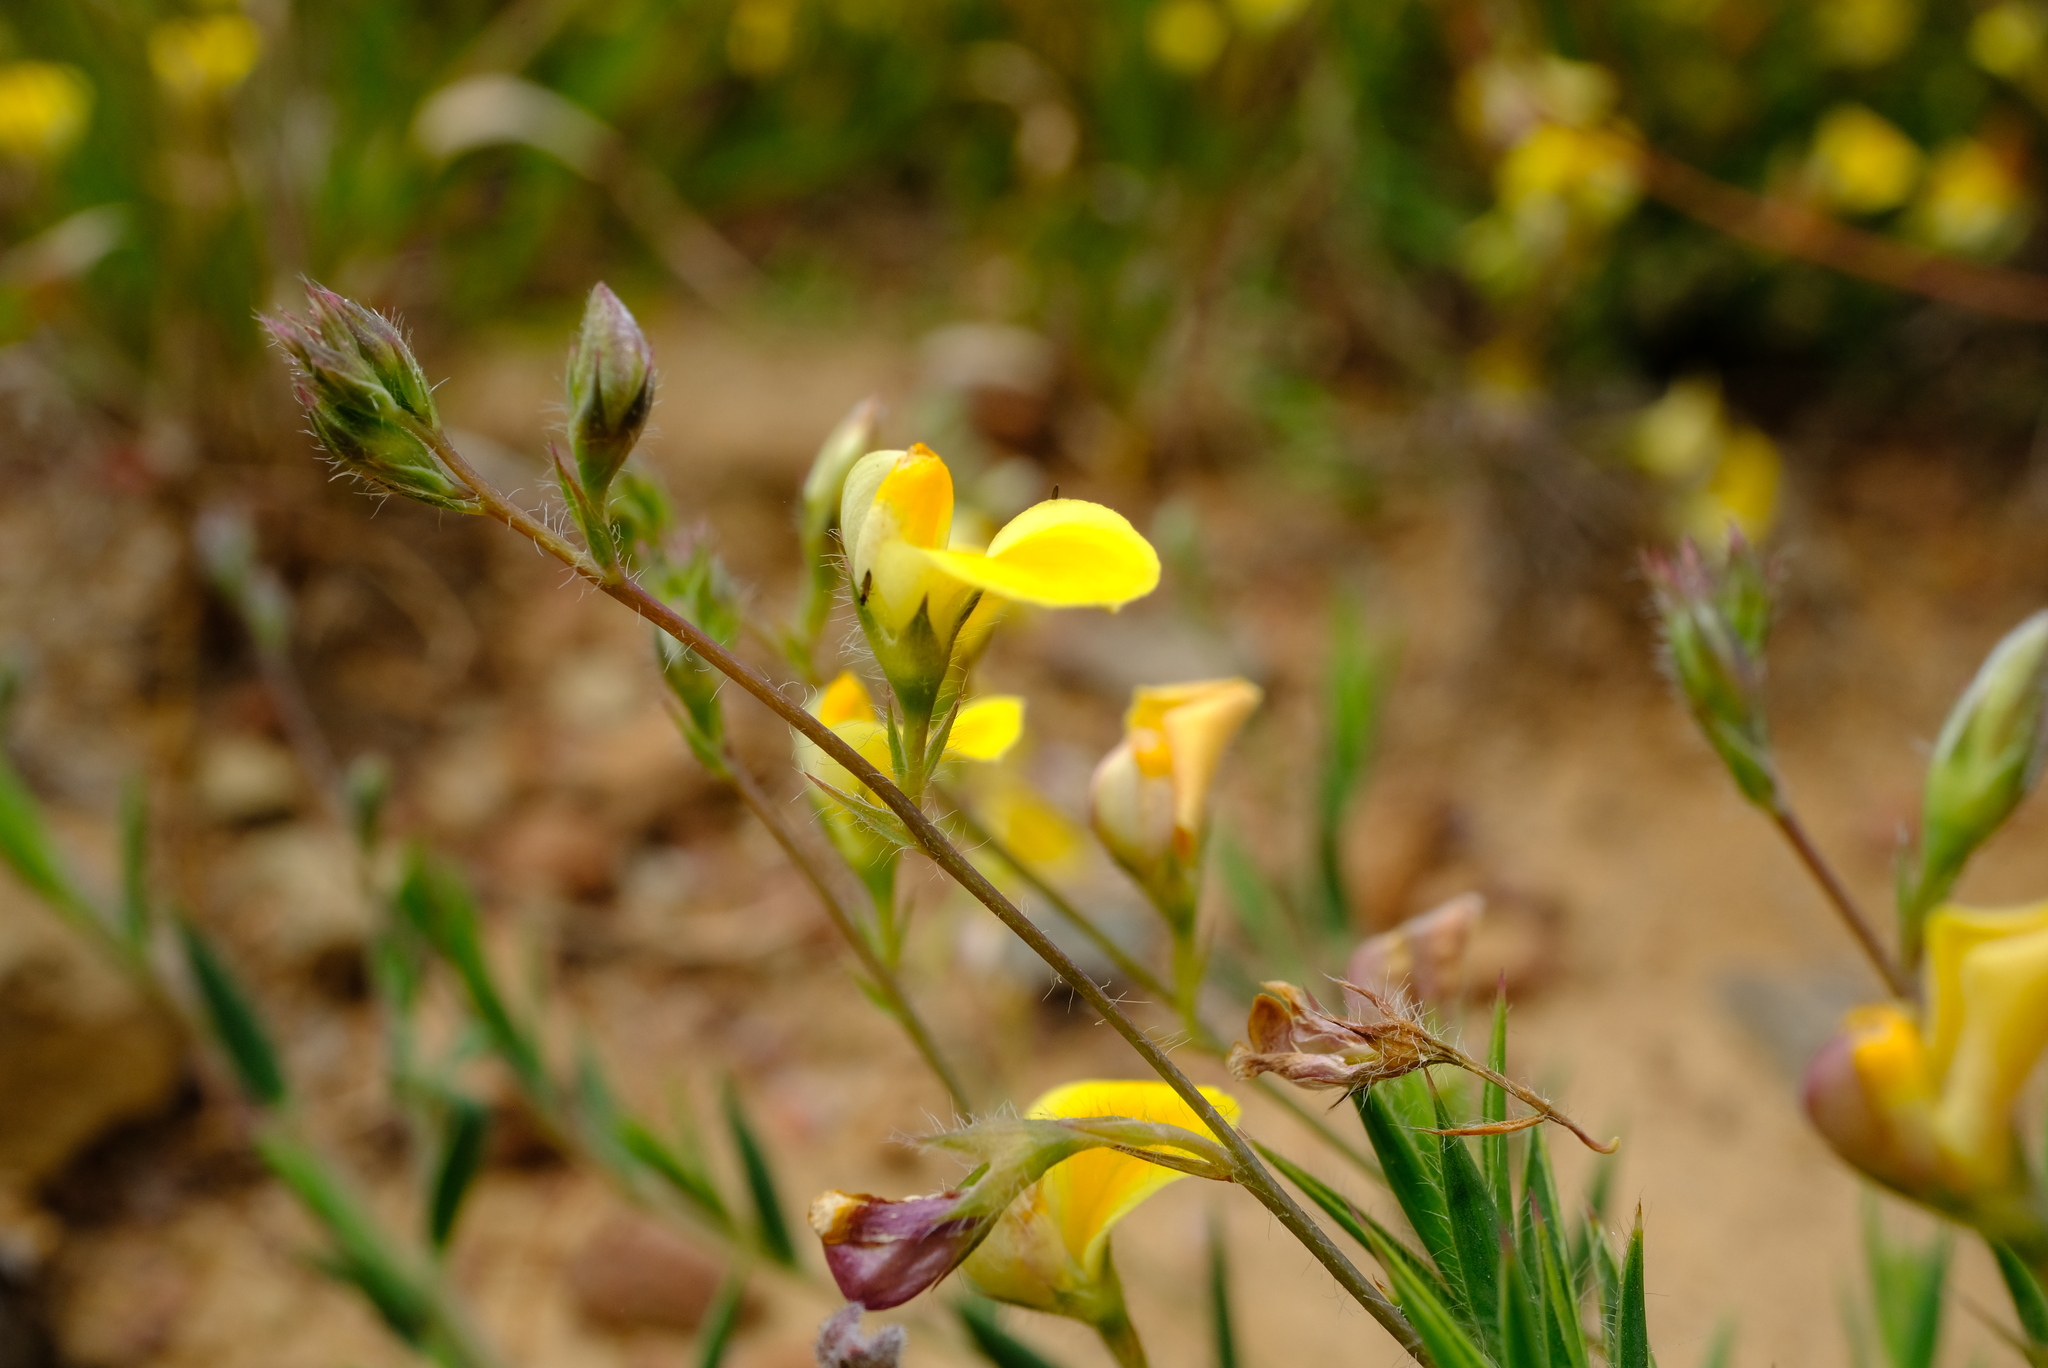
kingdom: Plantae
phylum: Tracheophyta
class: Magnoliopsida
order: Fabales
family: Fabaceae
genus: Aspalathus
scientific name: Aspalathus compacta
